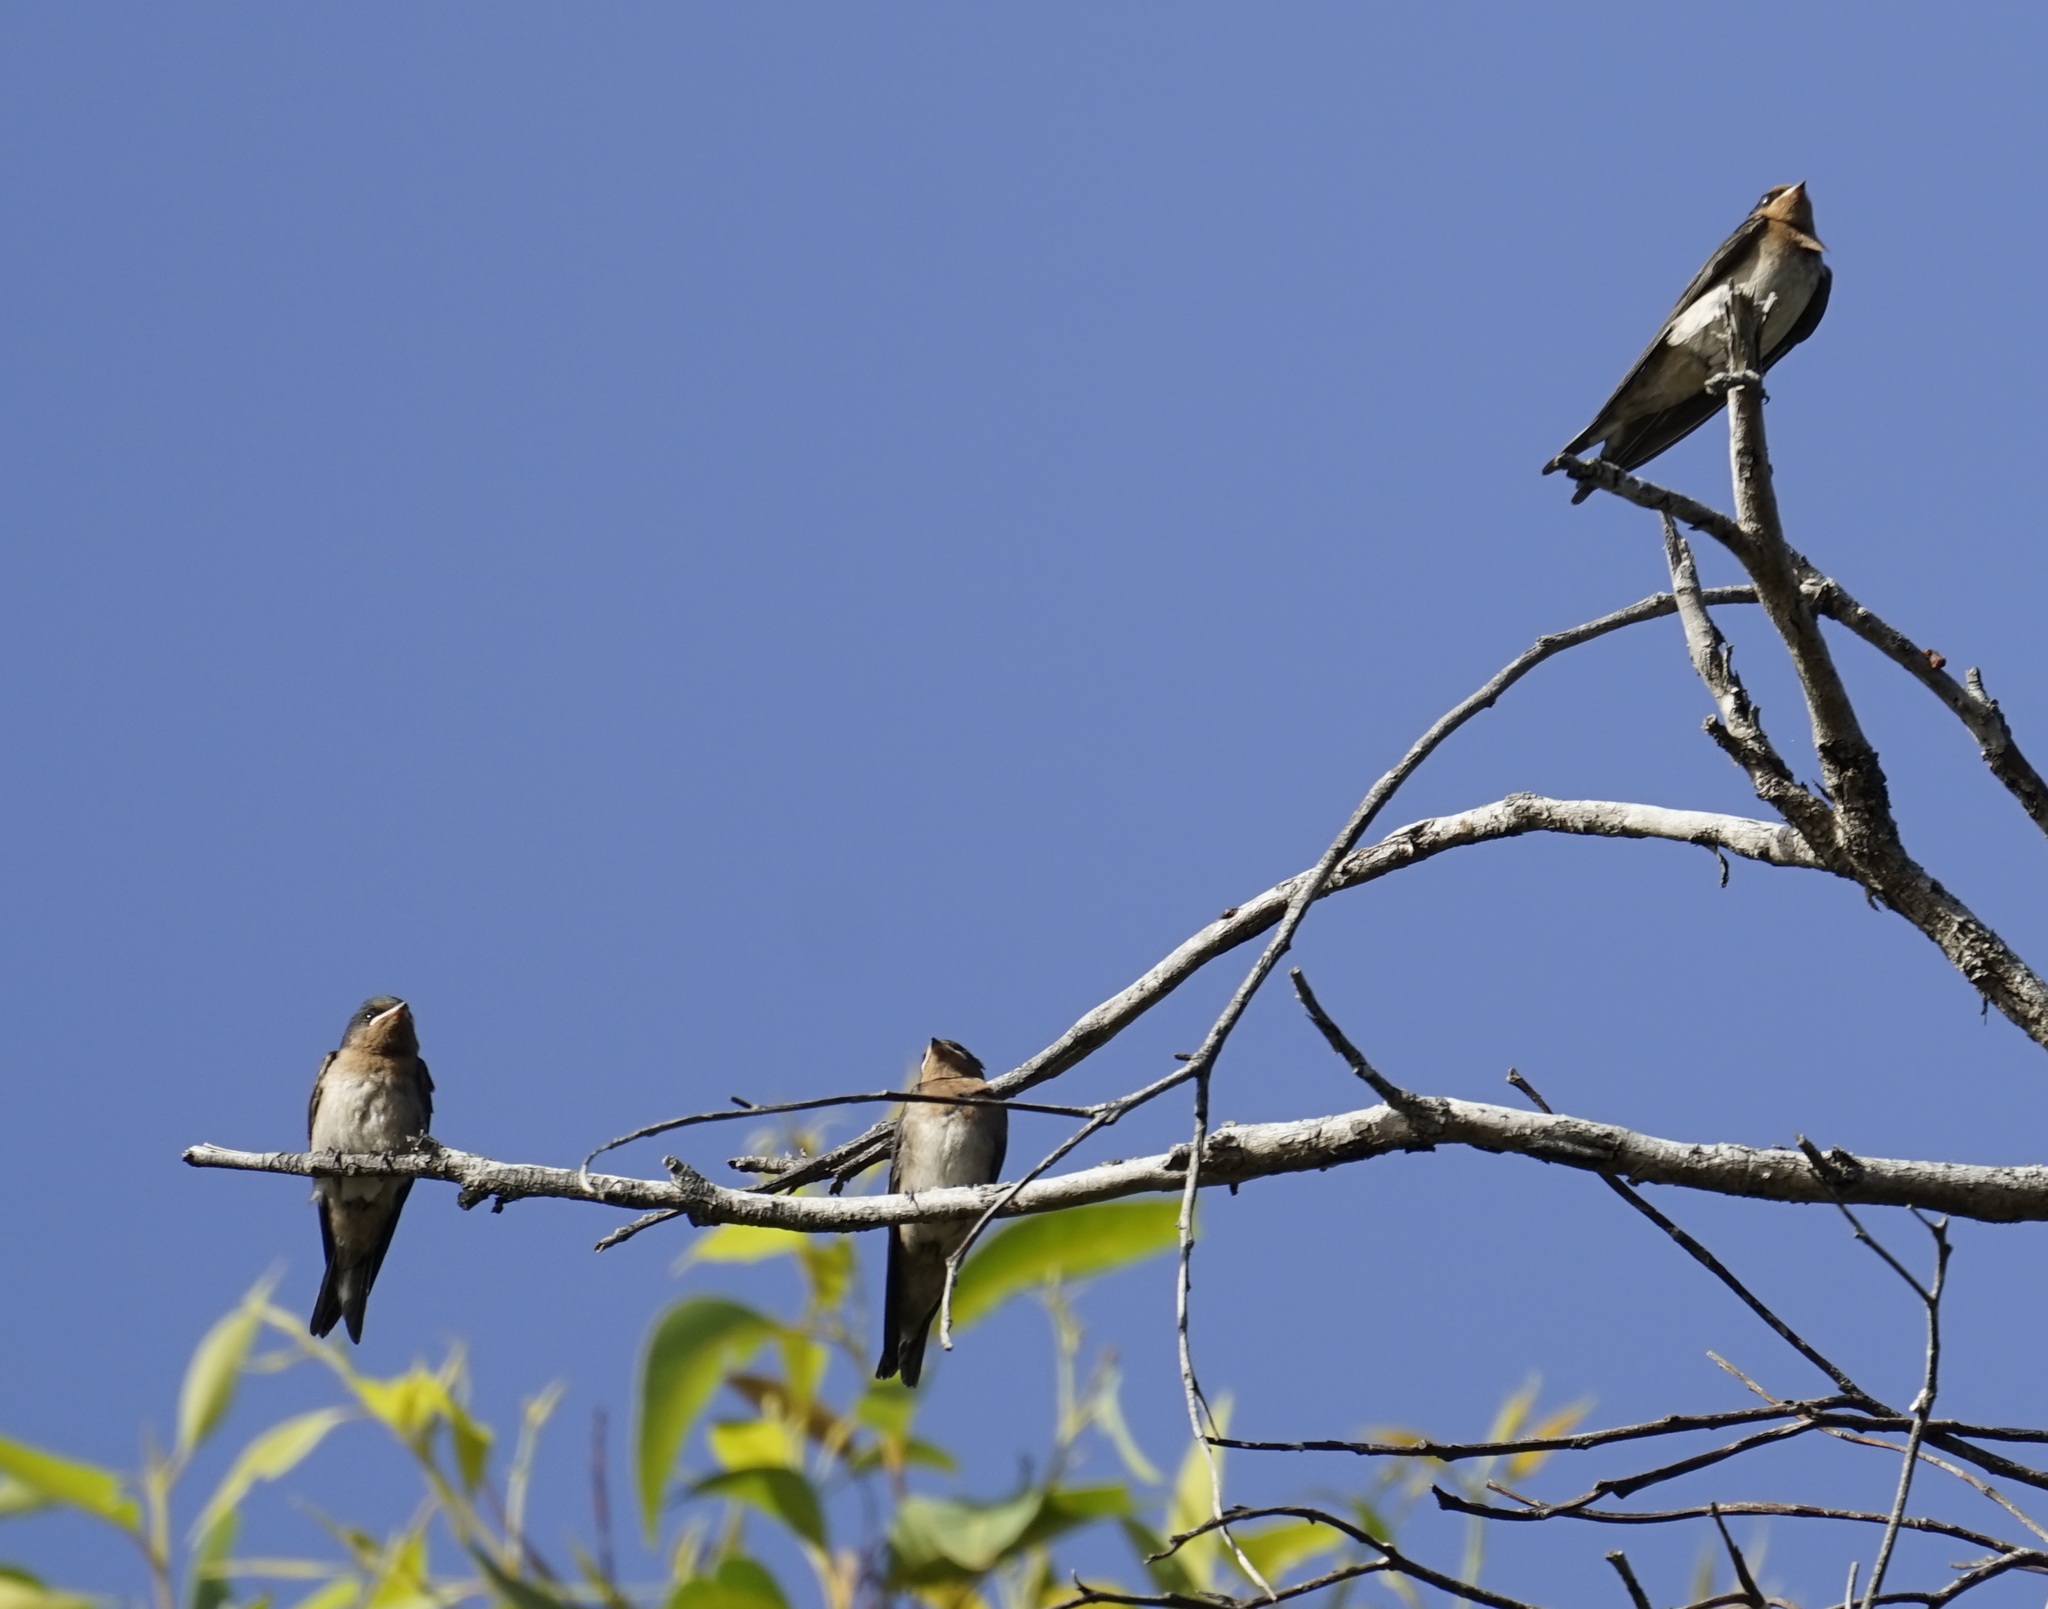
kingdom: Animalia
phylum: Chordata
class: Aves
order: Passeriformes
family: Hirundinidae
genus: Hirundo
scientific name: Hirundo neoxena
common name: Welcome swallow
